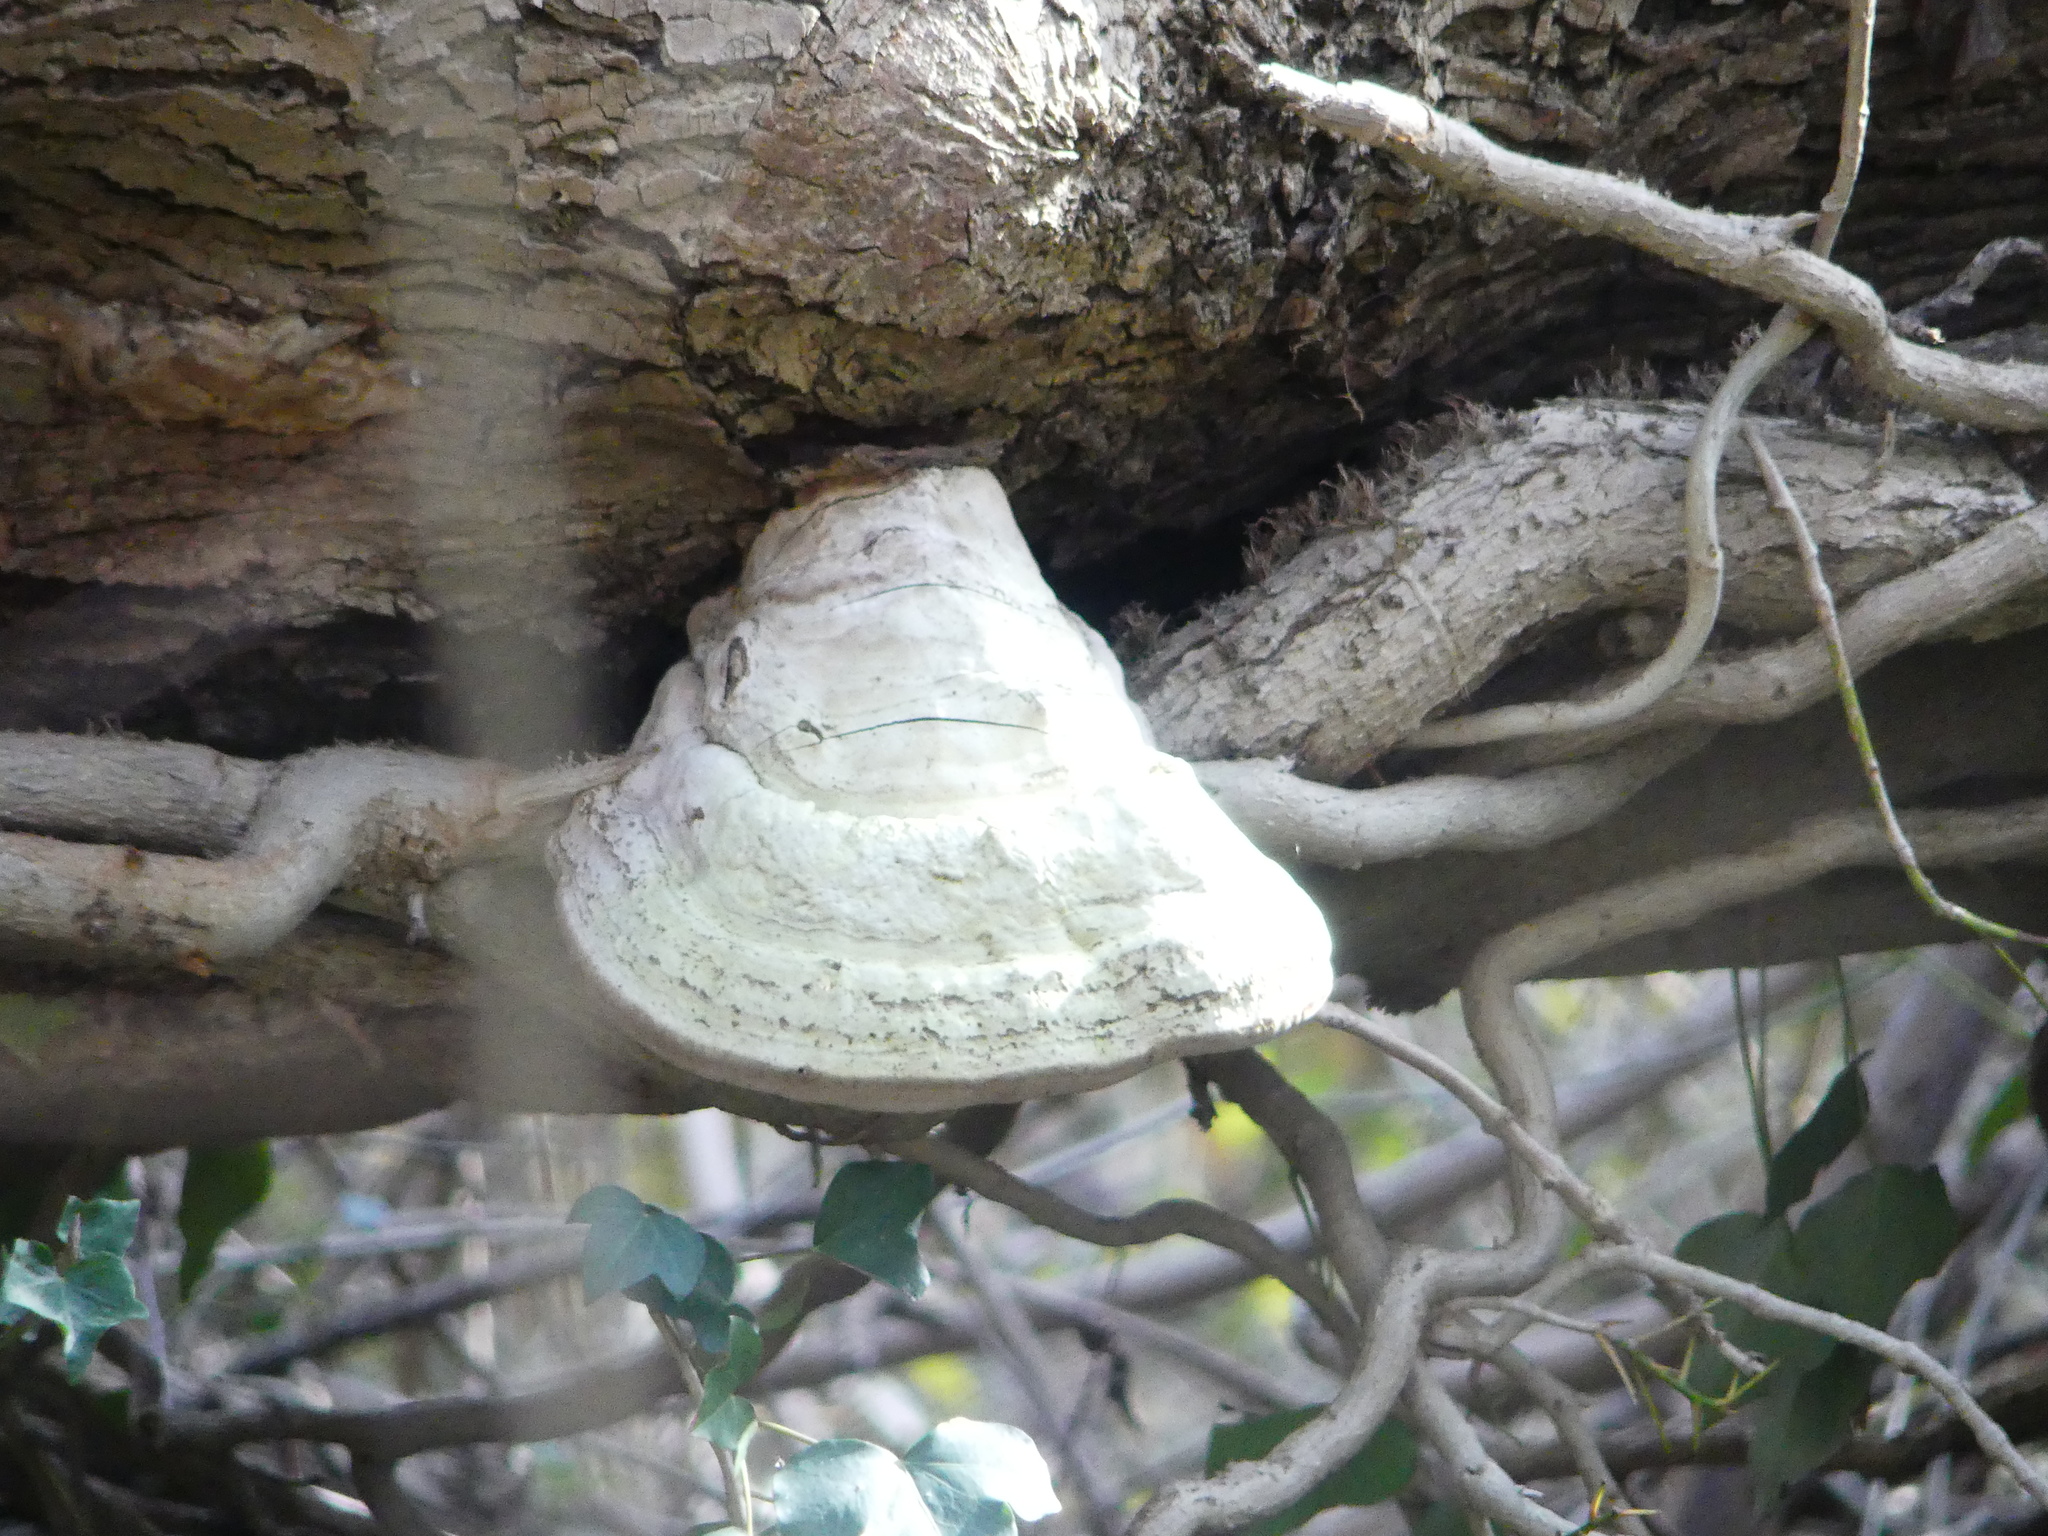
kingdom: Fungi
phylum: Basidiomycota
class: Agaricomycetes
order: Polyporales
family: Polyporaceae
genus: Fomes
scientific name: Fomes fomentarius
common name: Hoof fungus
